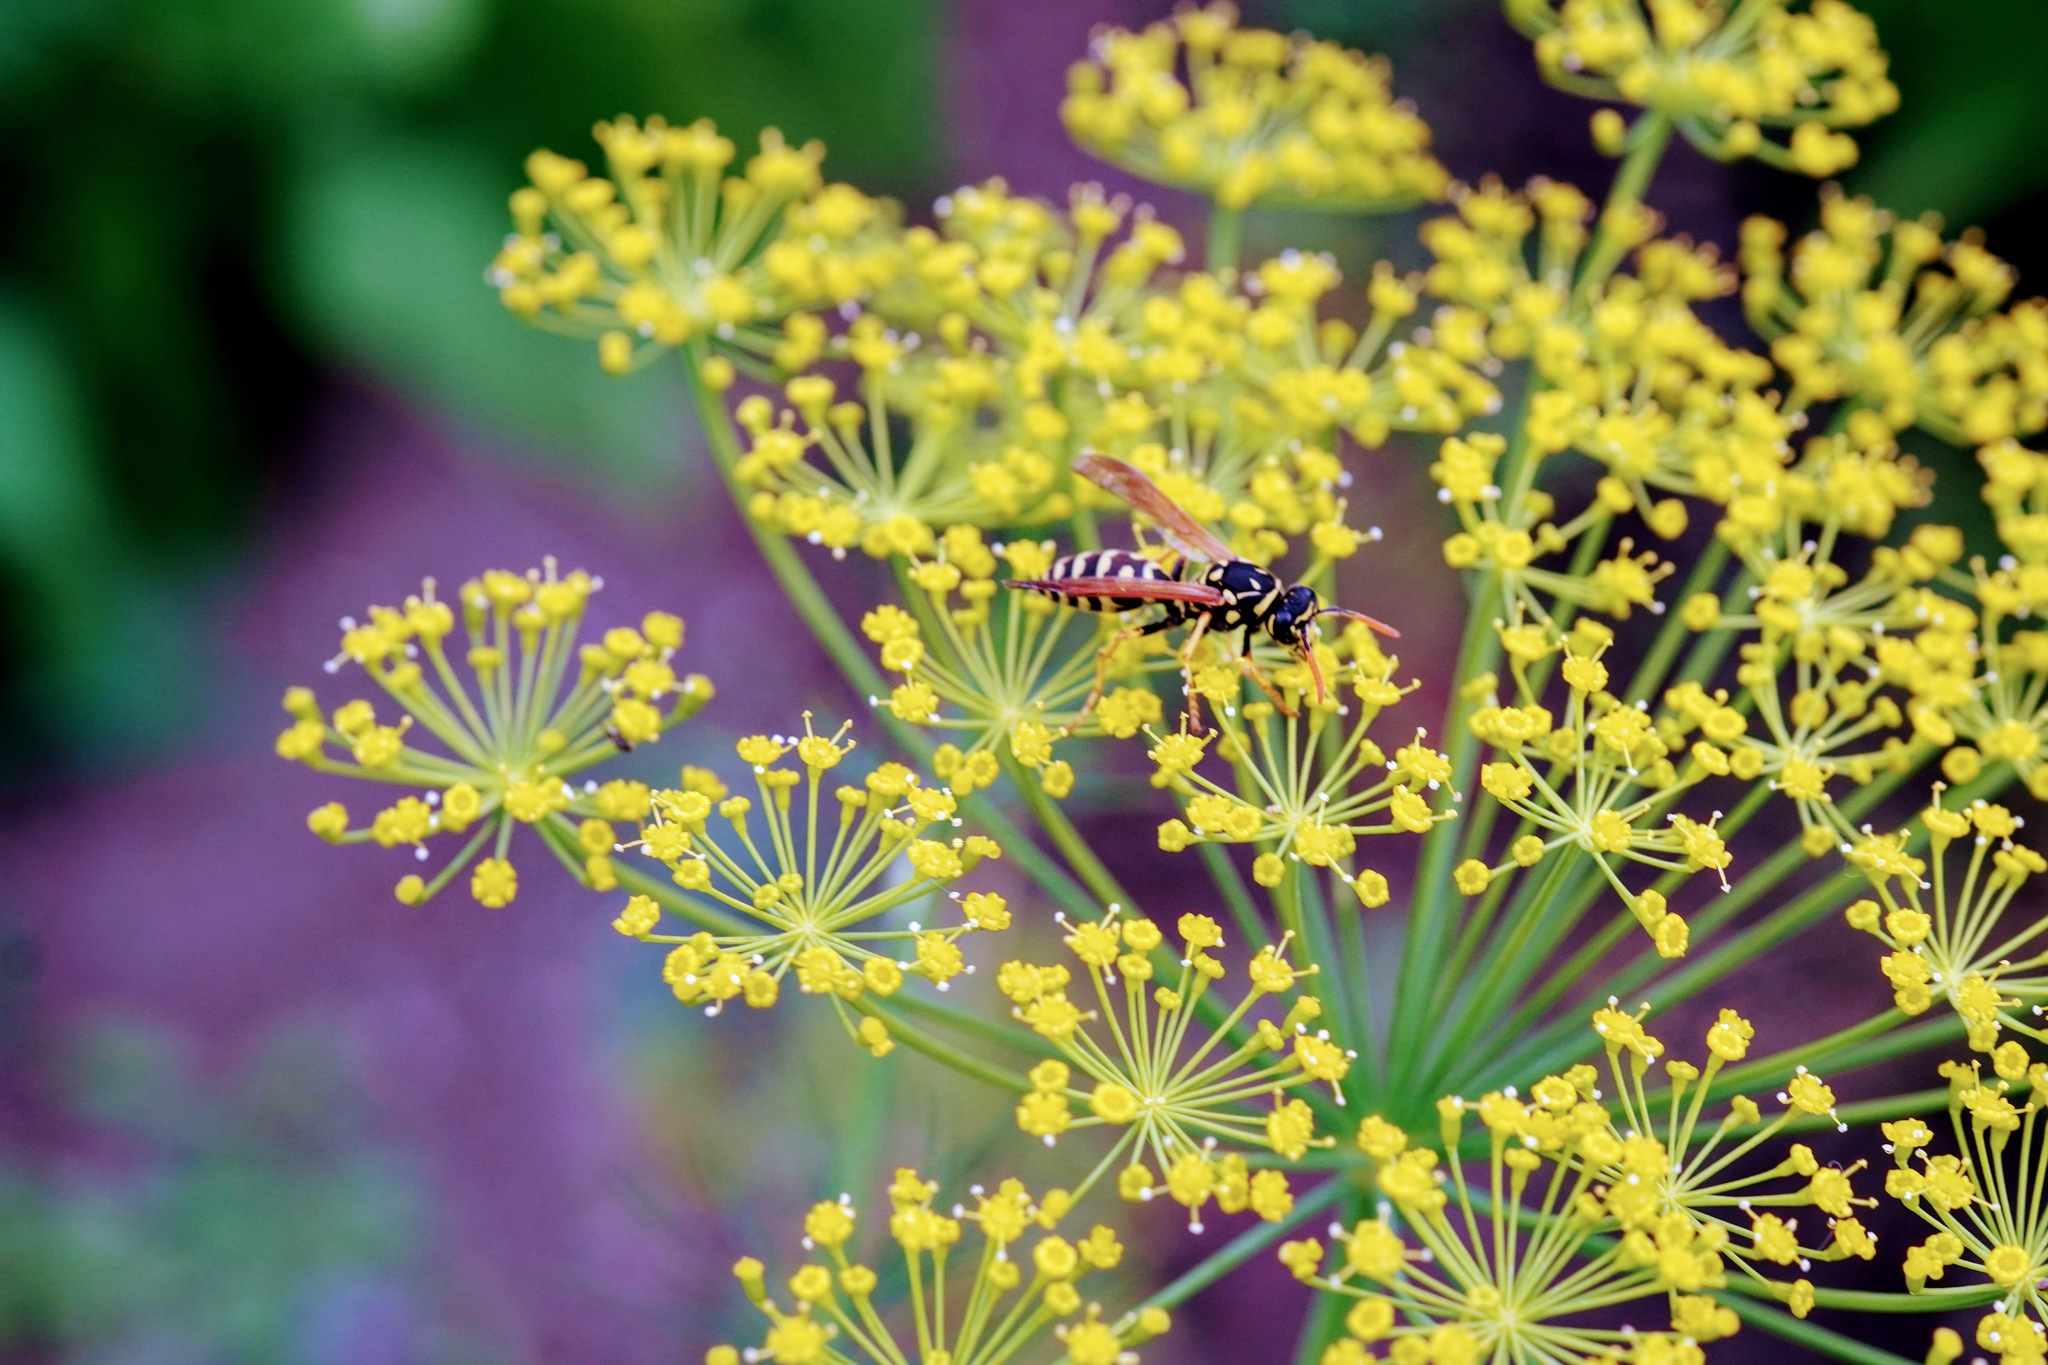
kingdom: Animalia
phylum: Arthropoda
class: Insecta
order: Hymenoptera
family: Eumenidae
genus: Polistes
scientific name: Polistes dominula
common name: Paper wasp
